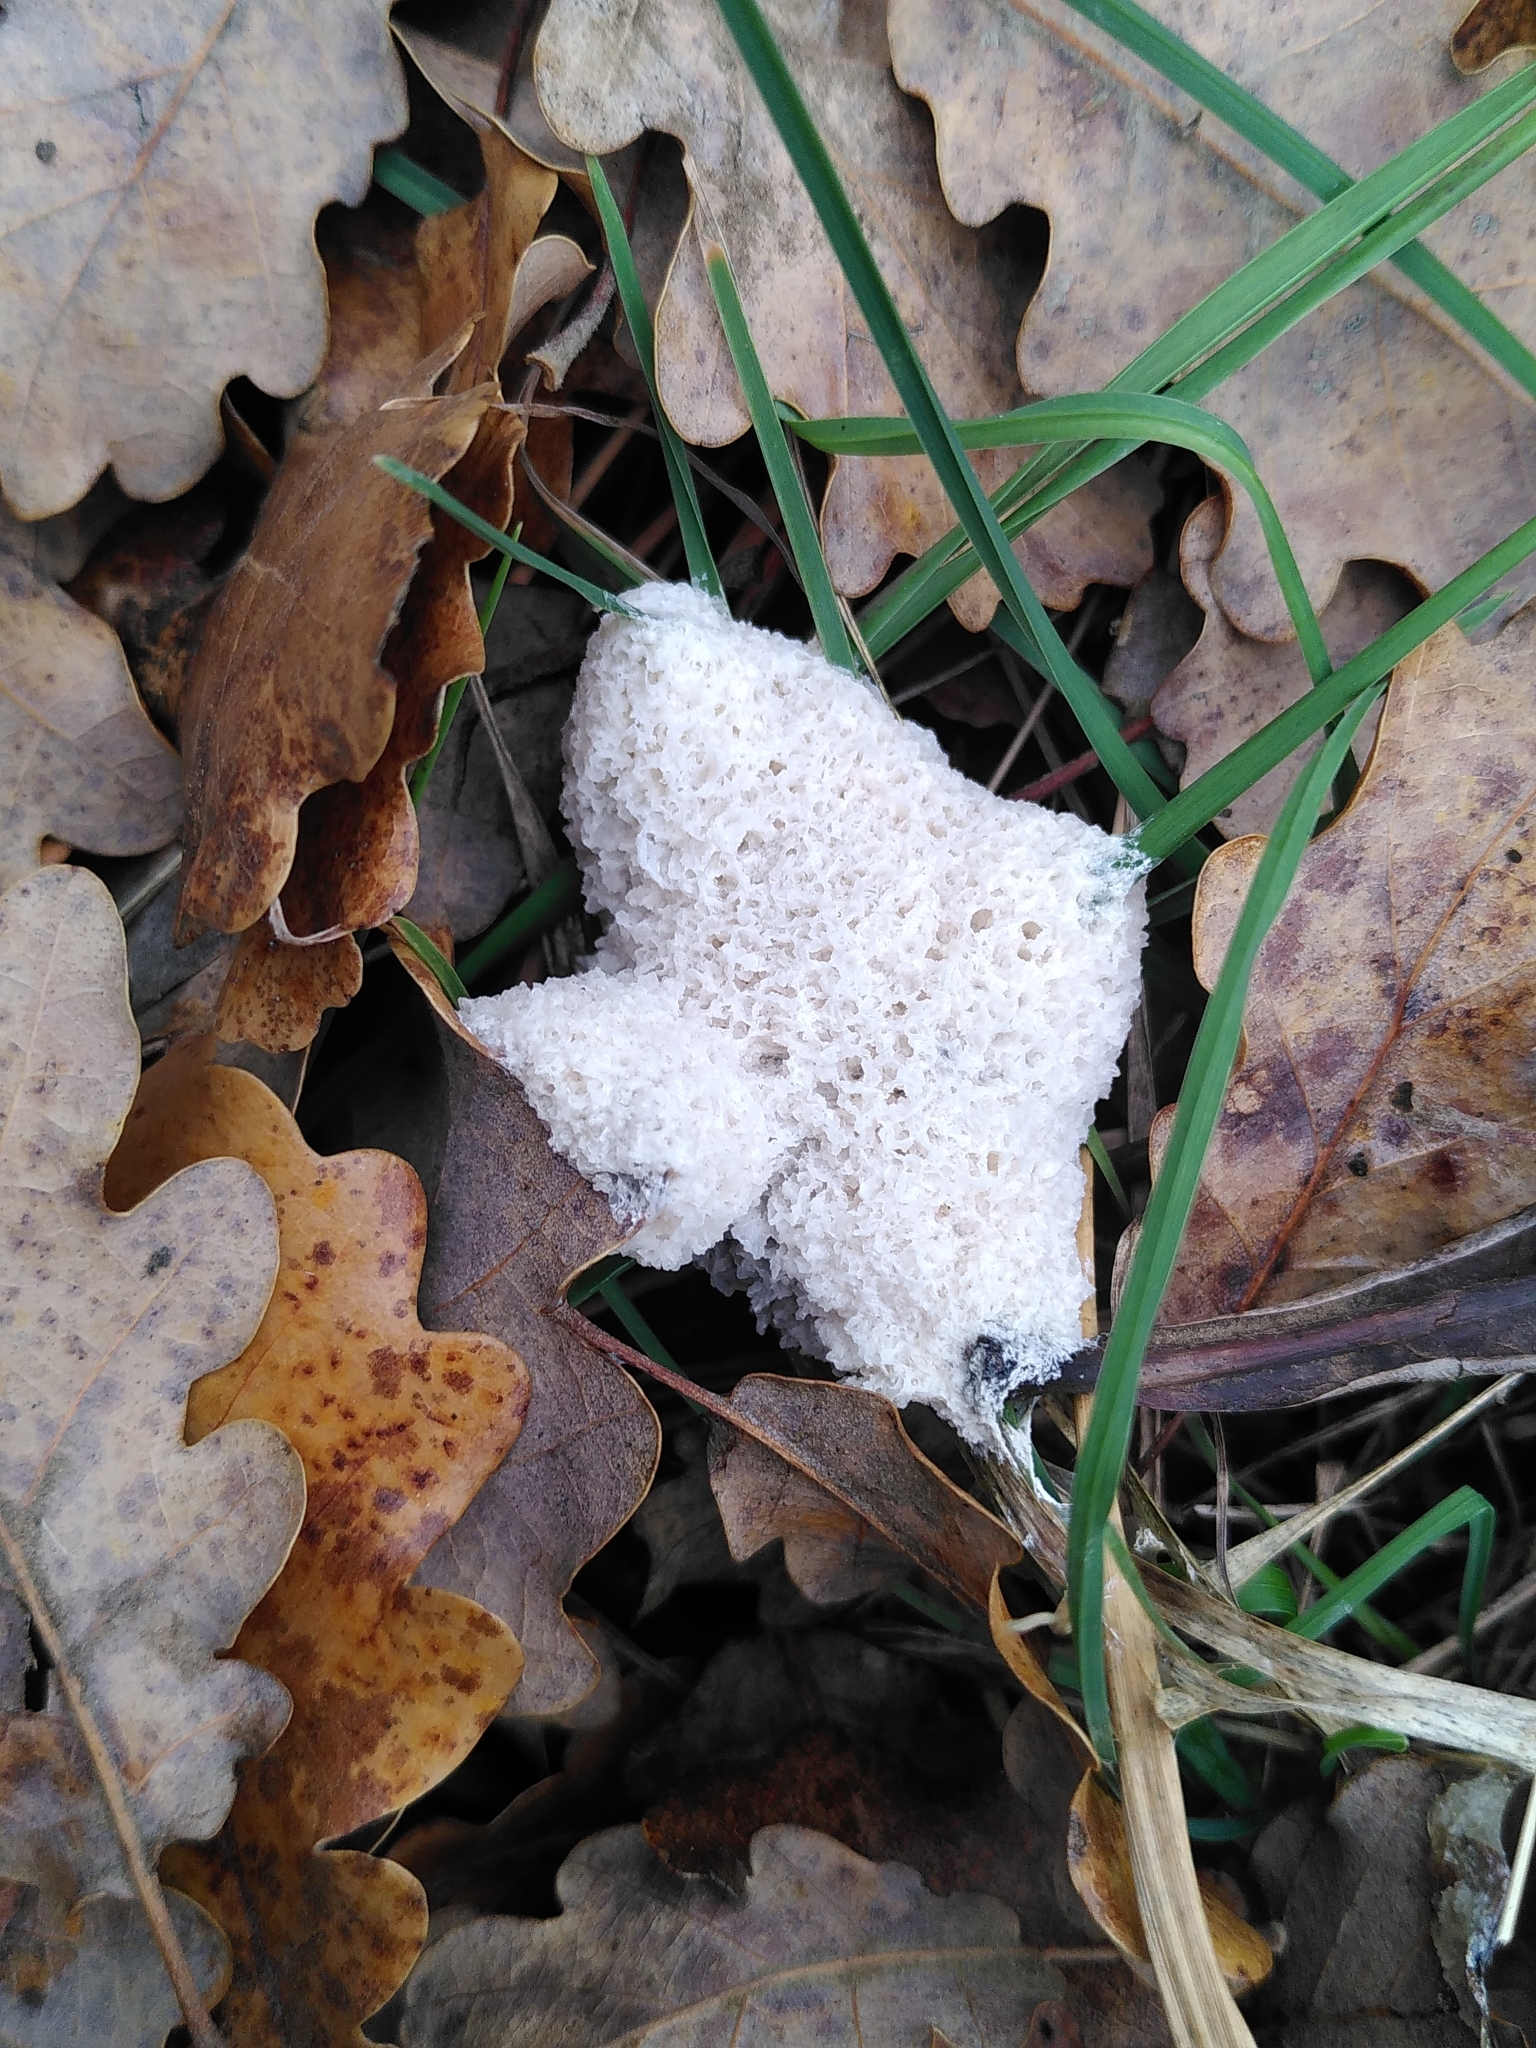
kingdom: Protozoa
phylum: Mycetozoa
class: Myxomycetes
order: Physarales
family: Physaraceae
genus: Didymium
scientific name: Didymium
